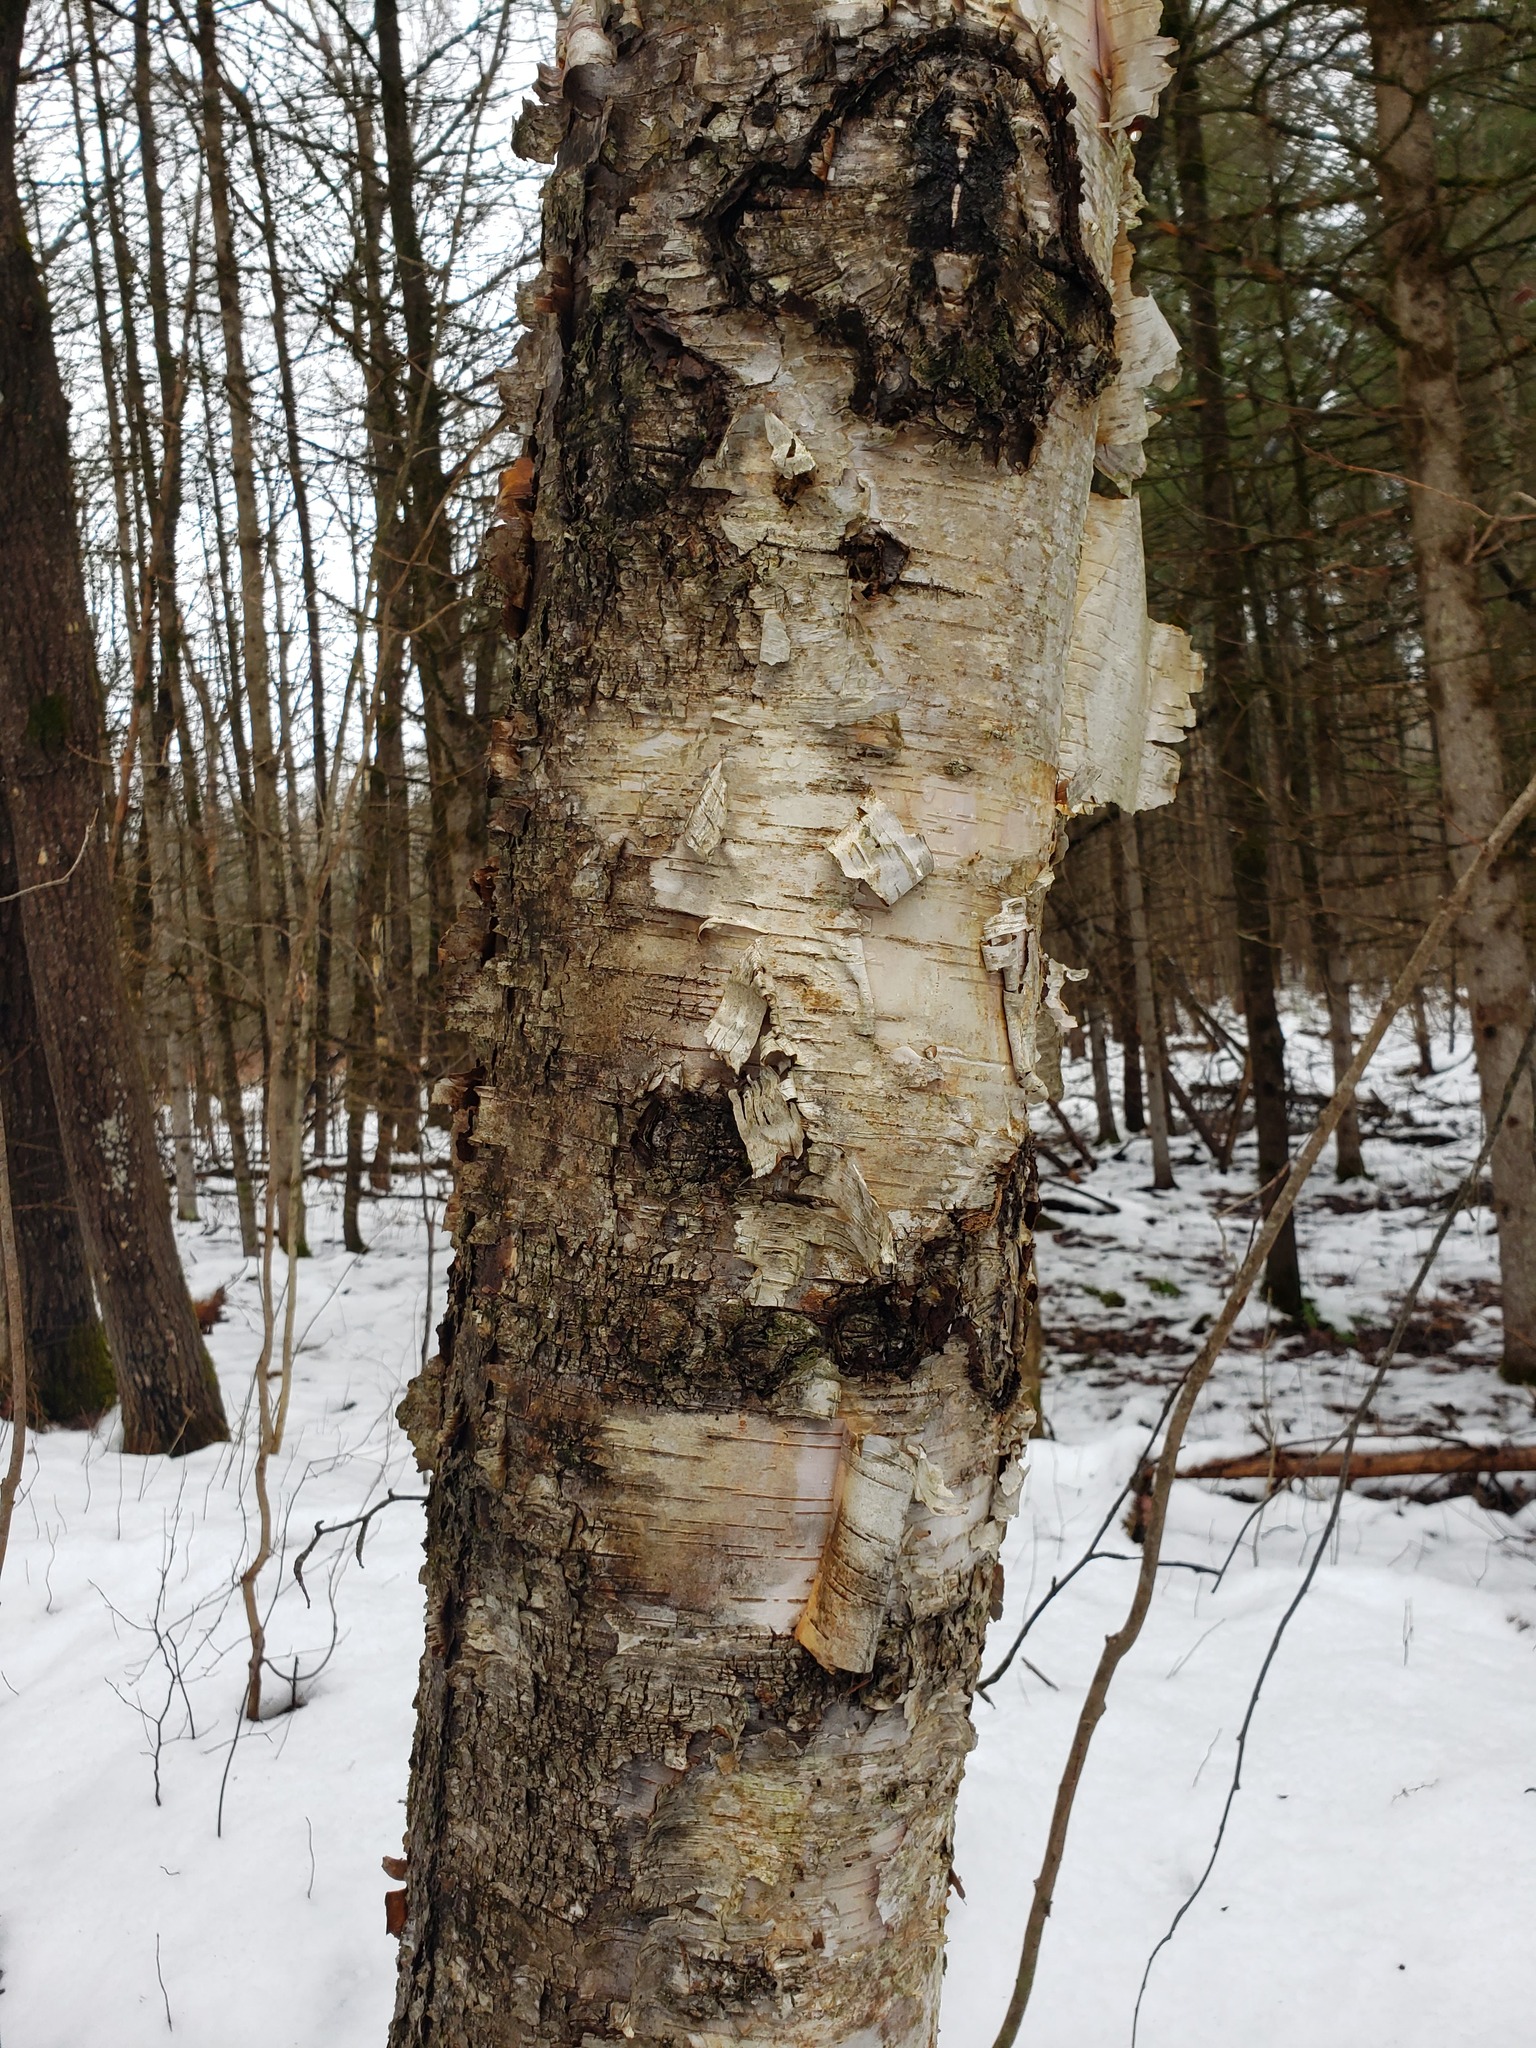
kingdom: Plantae
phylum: Tracheophyta
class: Magnoliopsida
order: Fagales
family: Betulaceae
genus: Betula
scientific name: Betula papyrifera
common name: Paper birch
